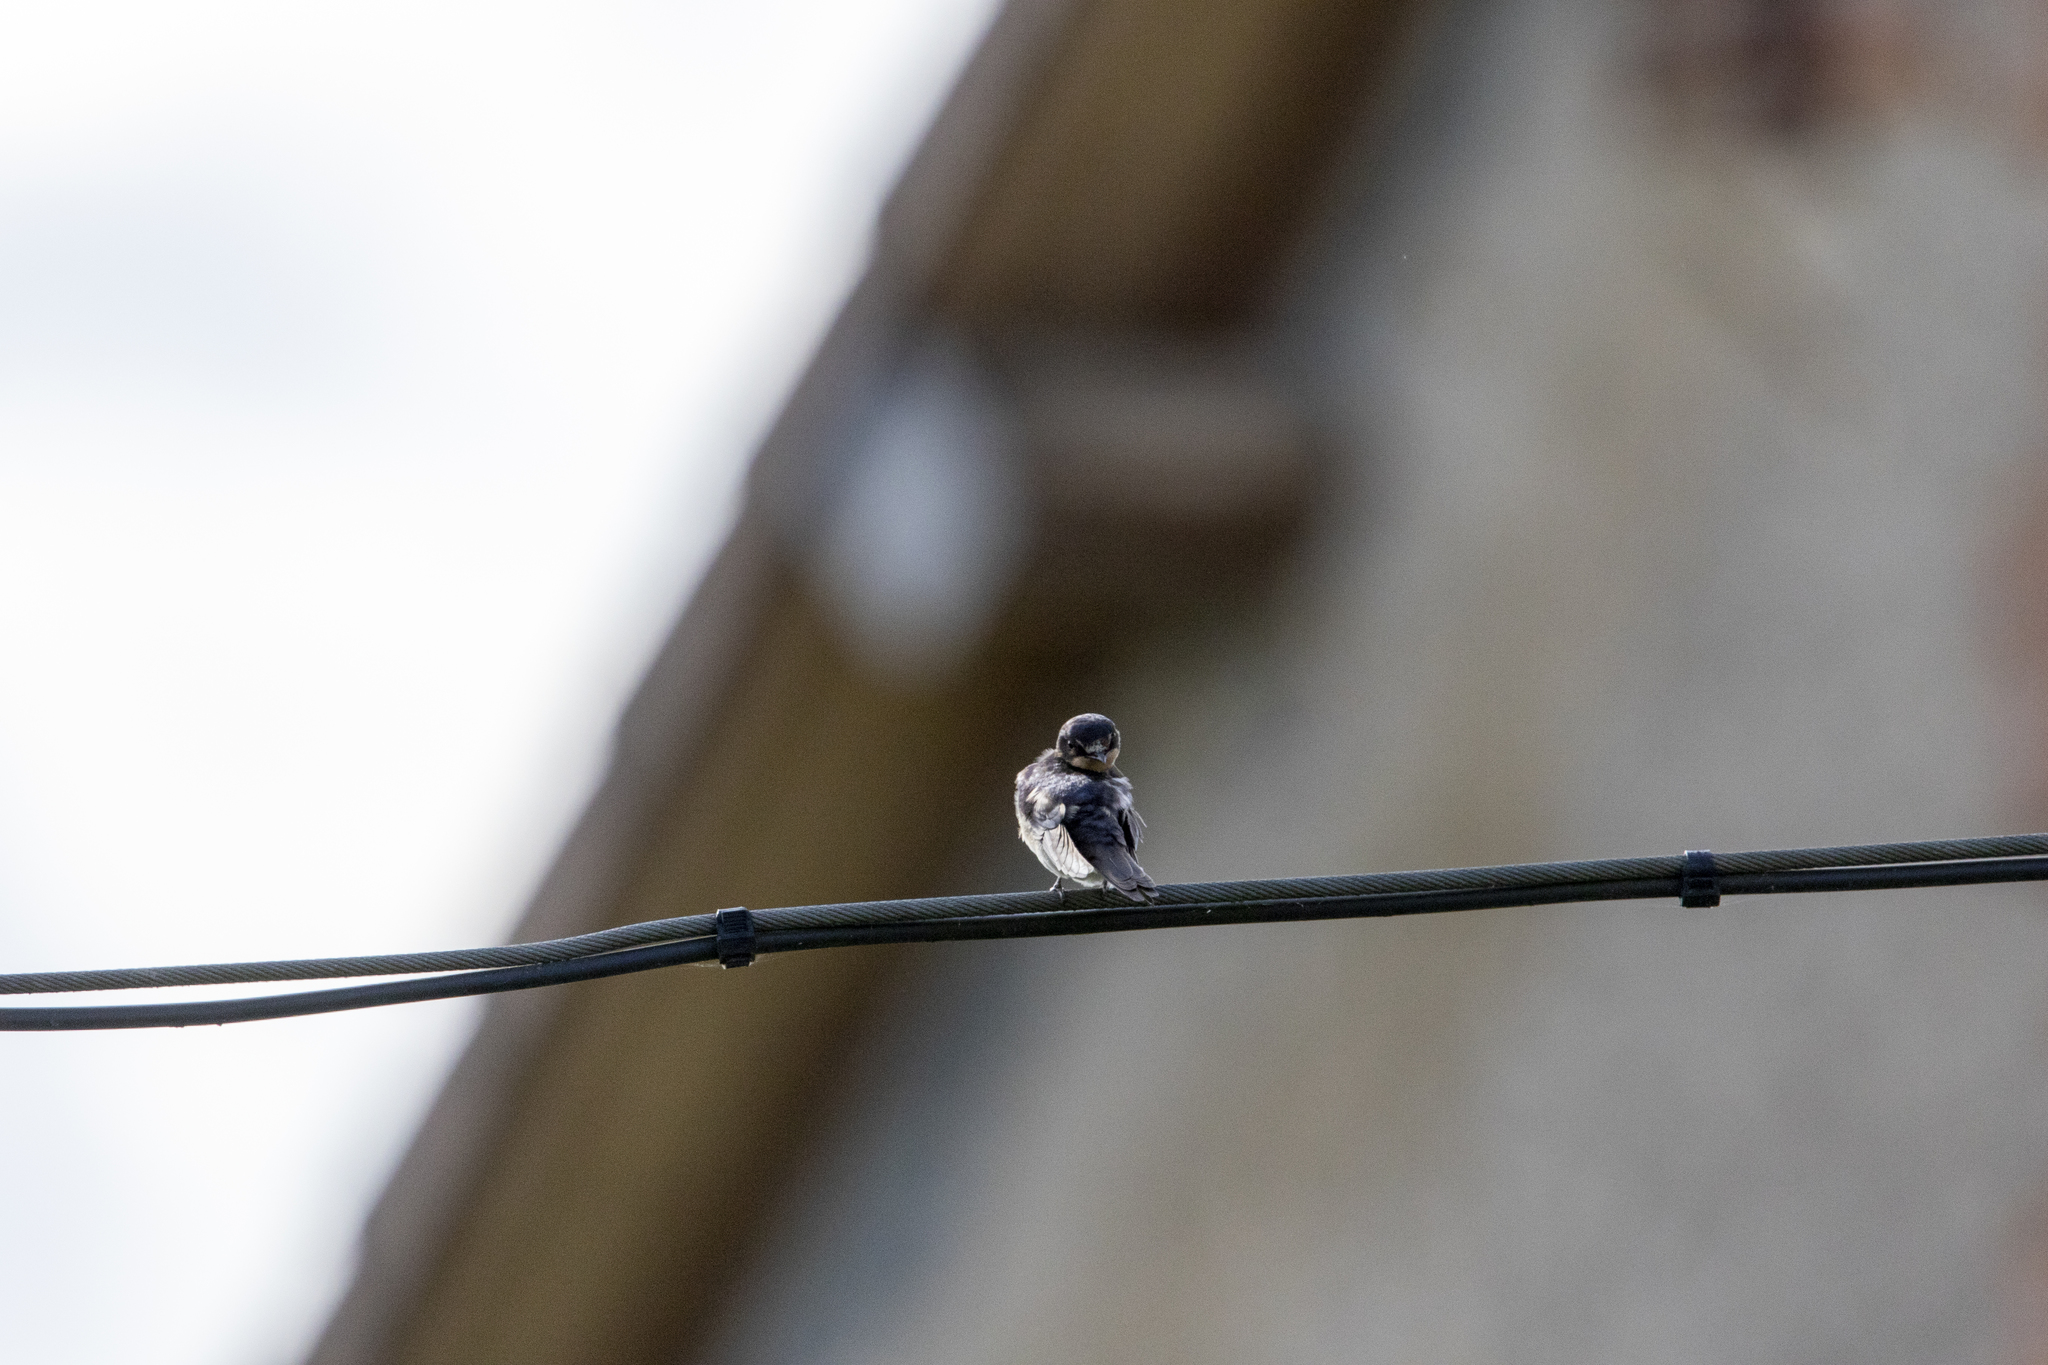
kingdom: Animalia
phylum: Chordata
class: Aves
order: Passeriformes
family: Hirundinidae
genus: Hirundo
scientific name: Hirundo rustica
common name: Barn swallow
